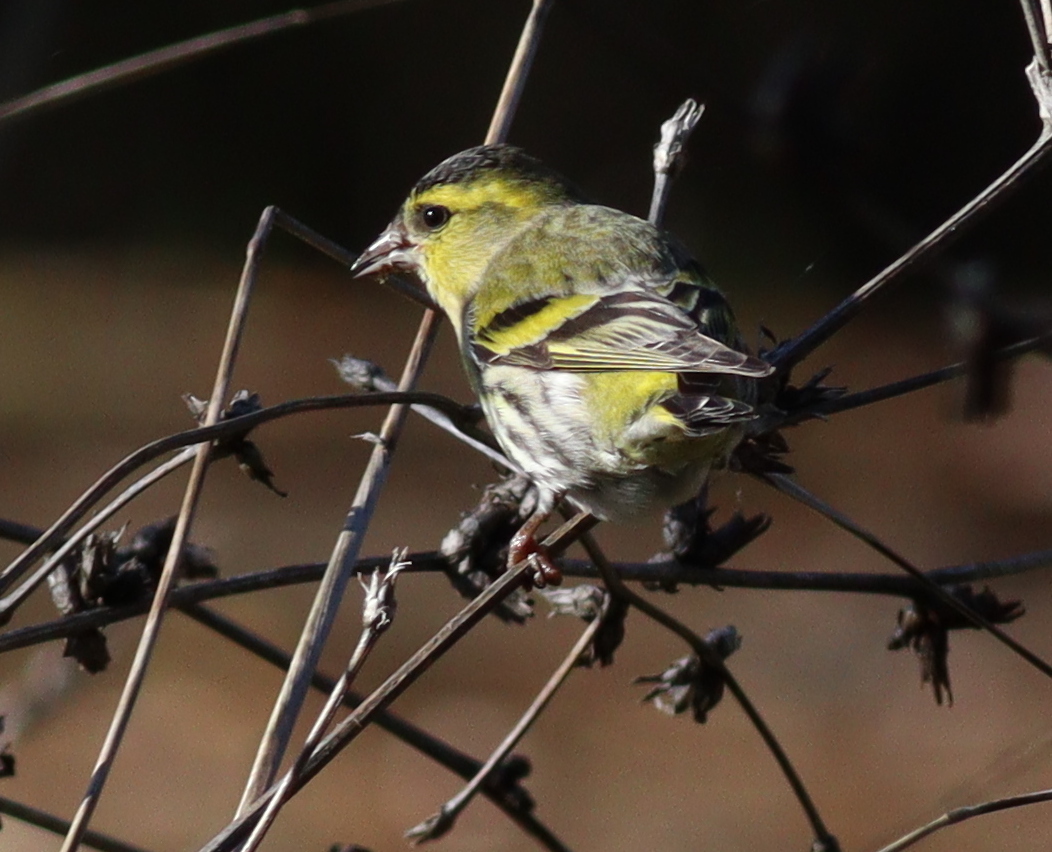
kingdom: Animalia
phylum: Chordata
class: Aves
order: Passeriformes
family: Fringillidae
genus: Spinus
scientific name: Spinus spinus
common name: Eurasian siskin
